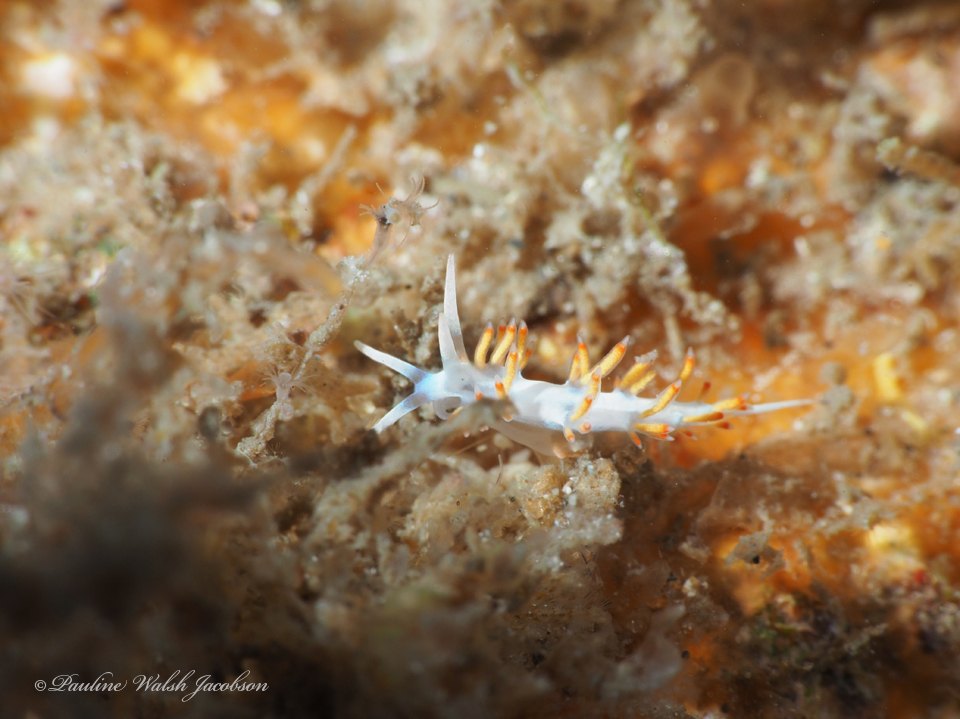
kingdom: Animalia
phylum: Mollusca
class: Gastropoda
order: Nudibranchia
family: Flabellinidae
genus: Flabellina
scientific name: Flabellina dushia
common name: Dushia flabellina
